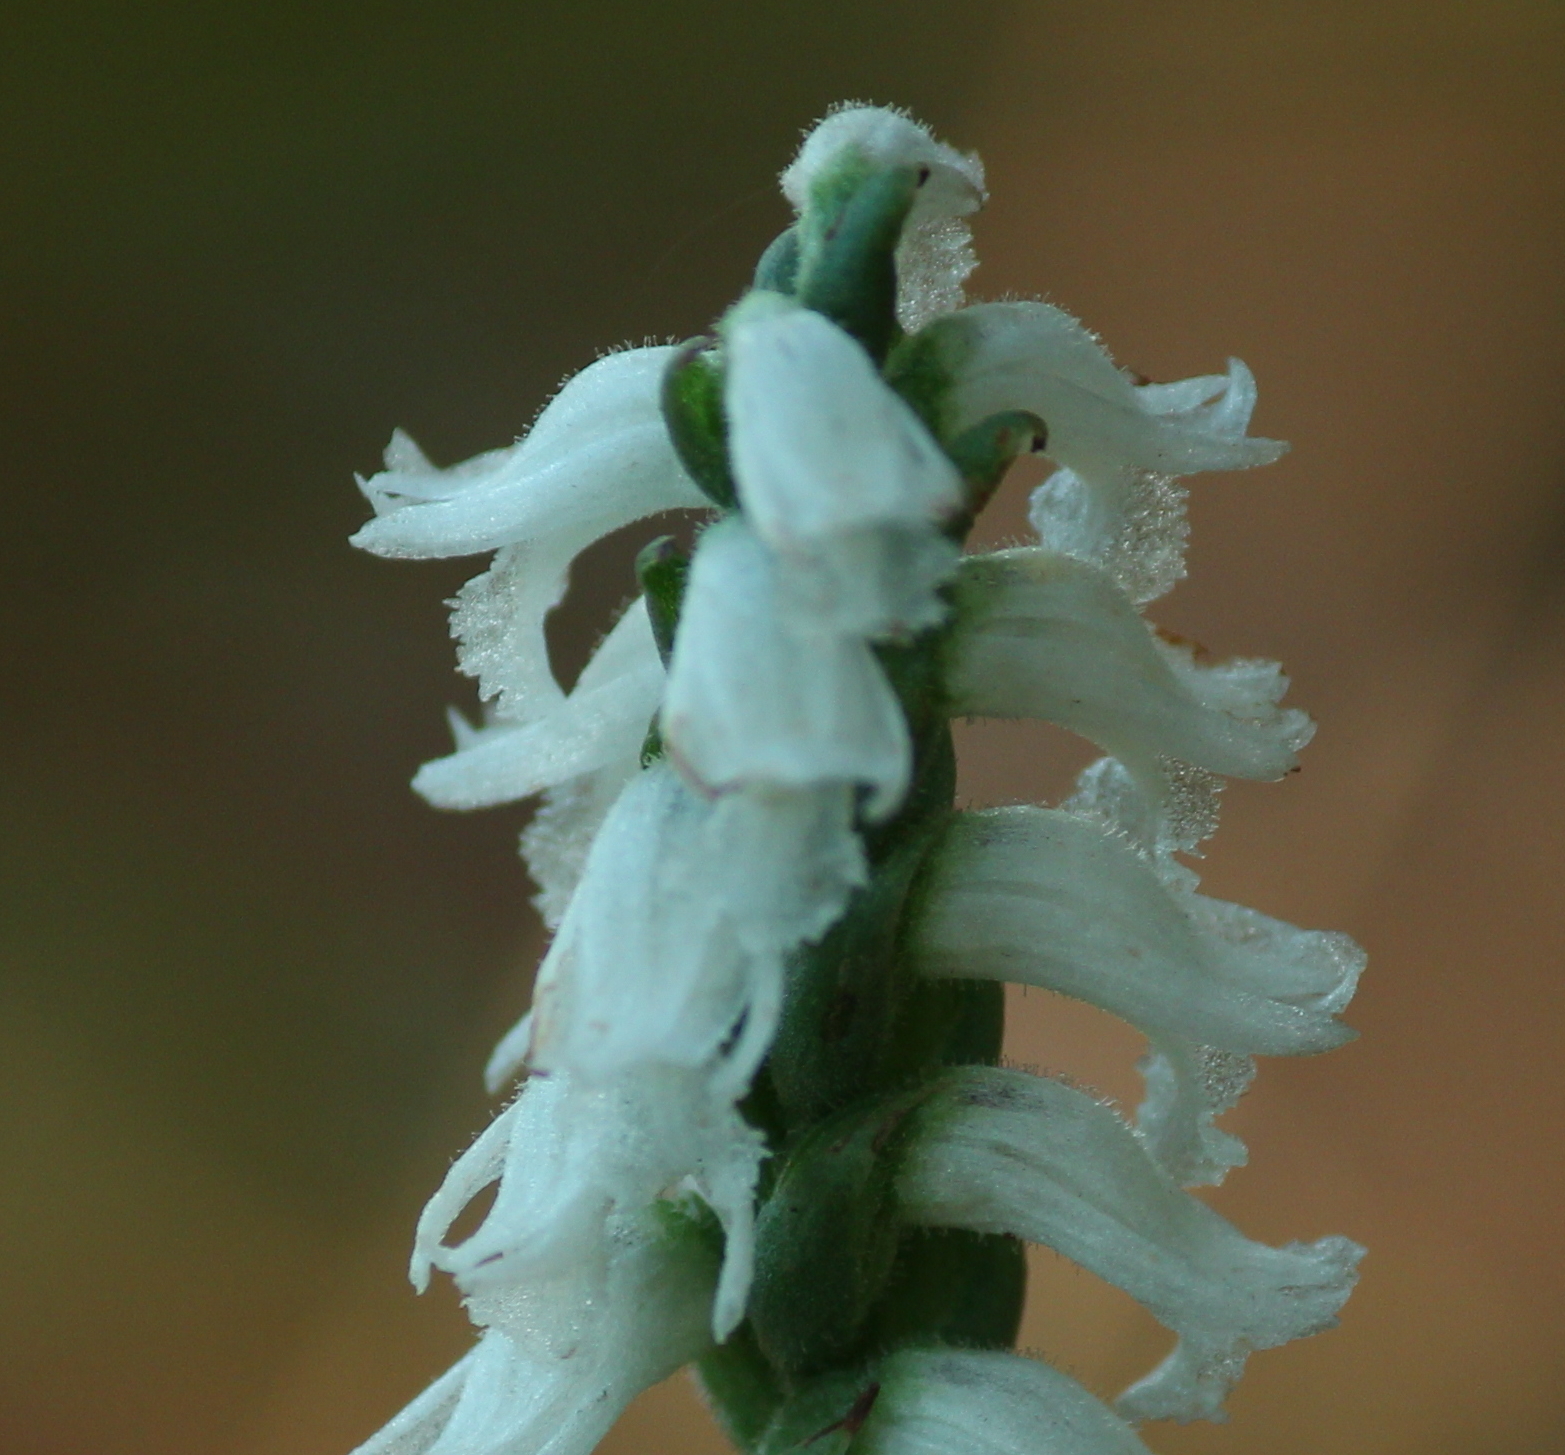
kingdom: Plantae
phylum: Tracheophyta
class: Liliopsida
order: Asparagales
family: Orchidaceae
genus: Spiranthes
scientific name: Spiranthes cernua
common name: Dropping ladies'-tresses
